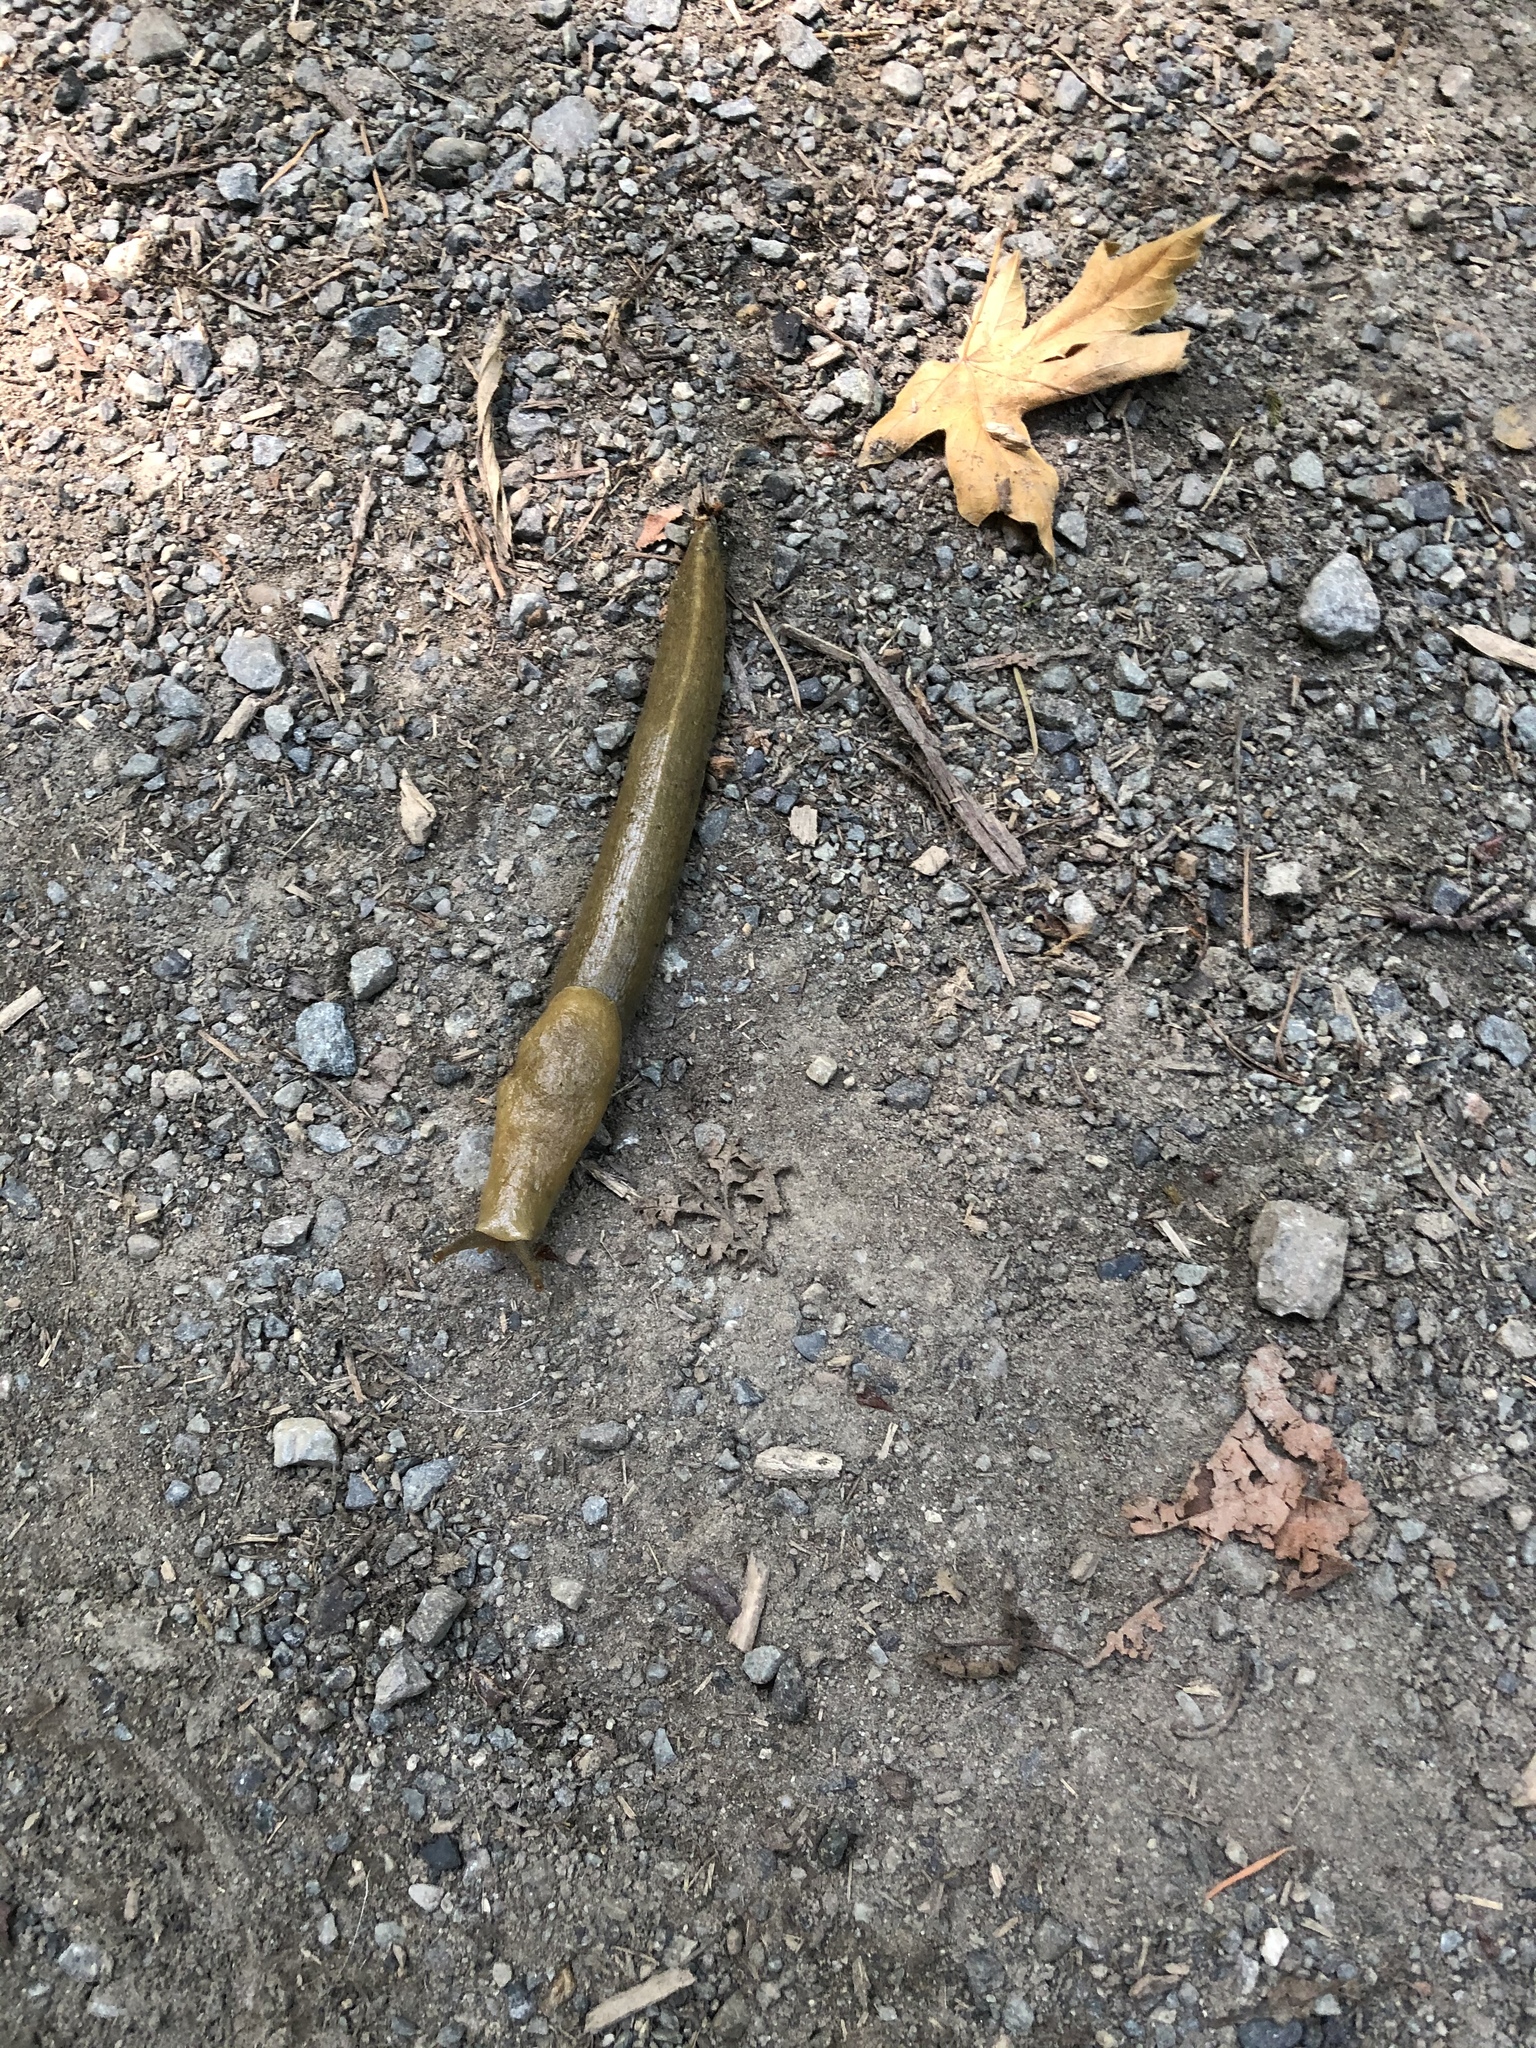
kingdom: Animalia
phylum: Mollusca
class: Gastropoda
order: Stylommatophora
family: Ariolimacidae
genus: Ariolimax
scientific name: Ariolimax columbianus
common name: Pacific banana slug
